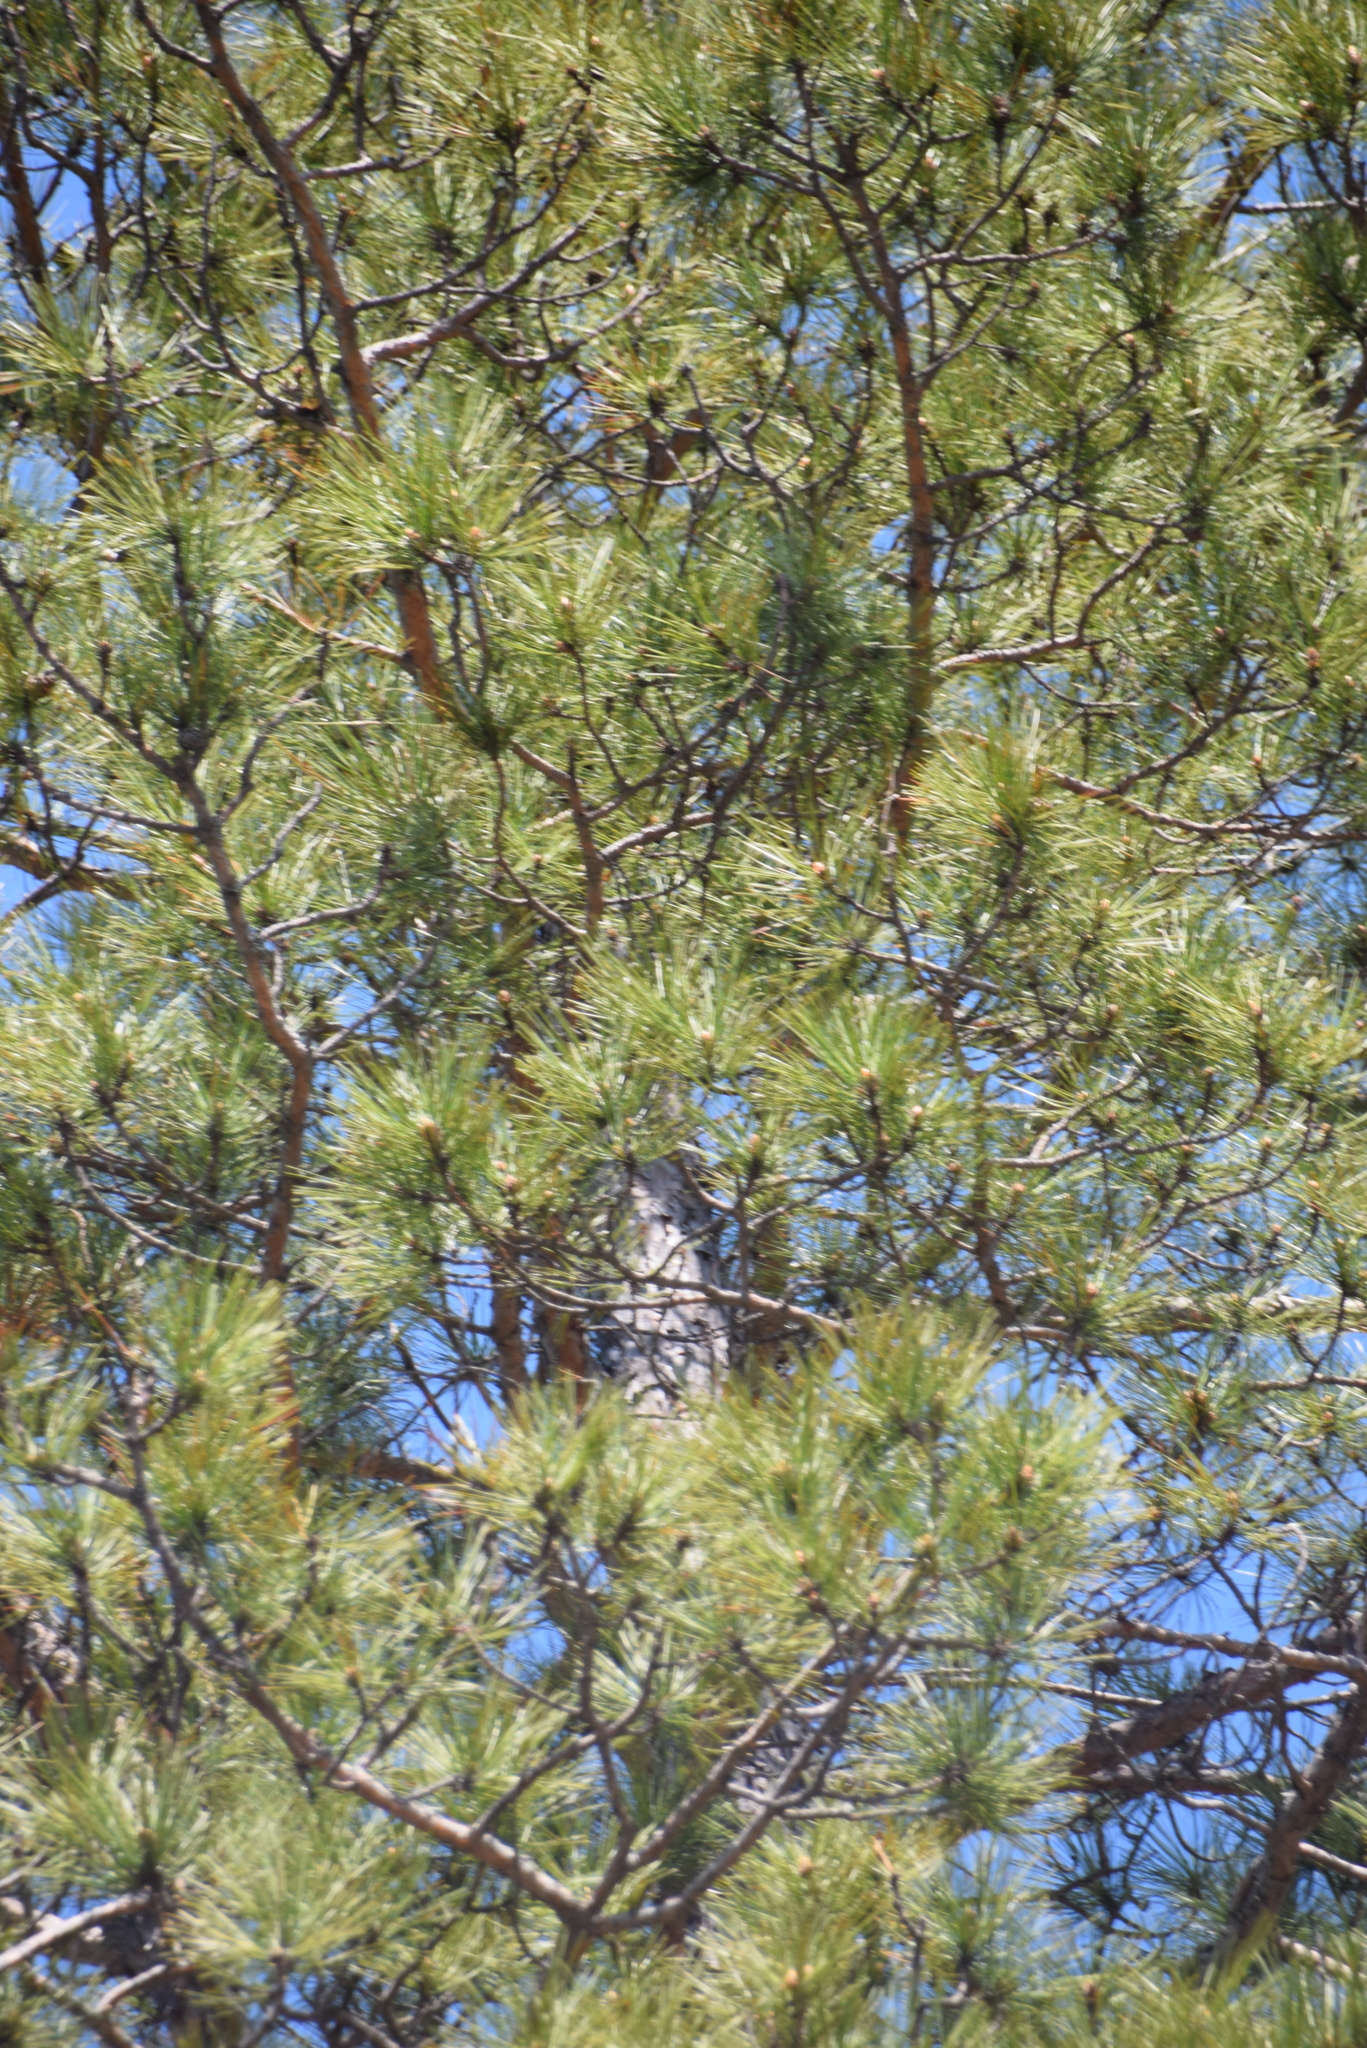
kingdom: Plantae
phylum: Tracheophyta
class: Pinopsida
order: Pinales
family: Pinaceae
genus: Pinus
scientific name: Pinus resinosa
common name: Norway pine
